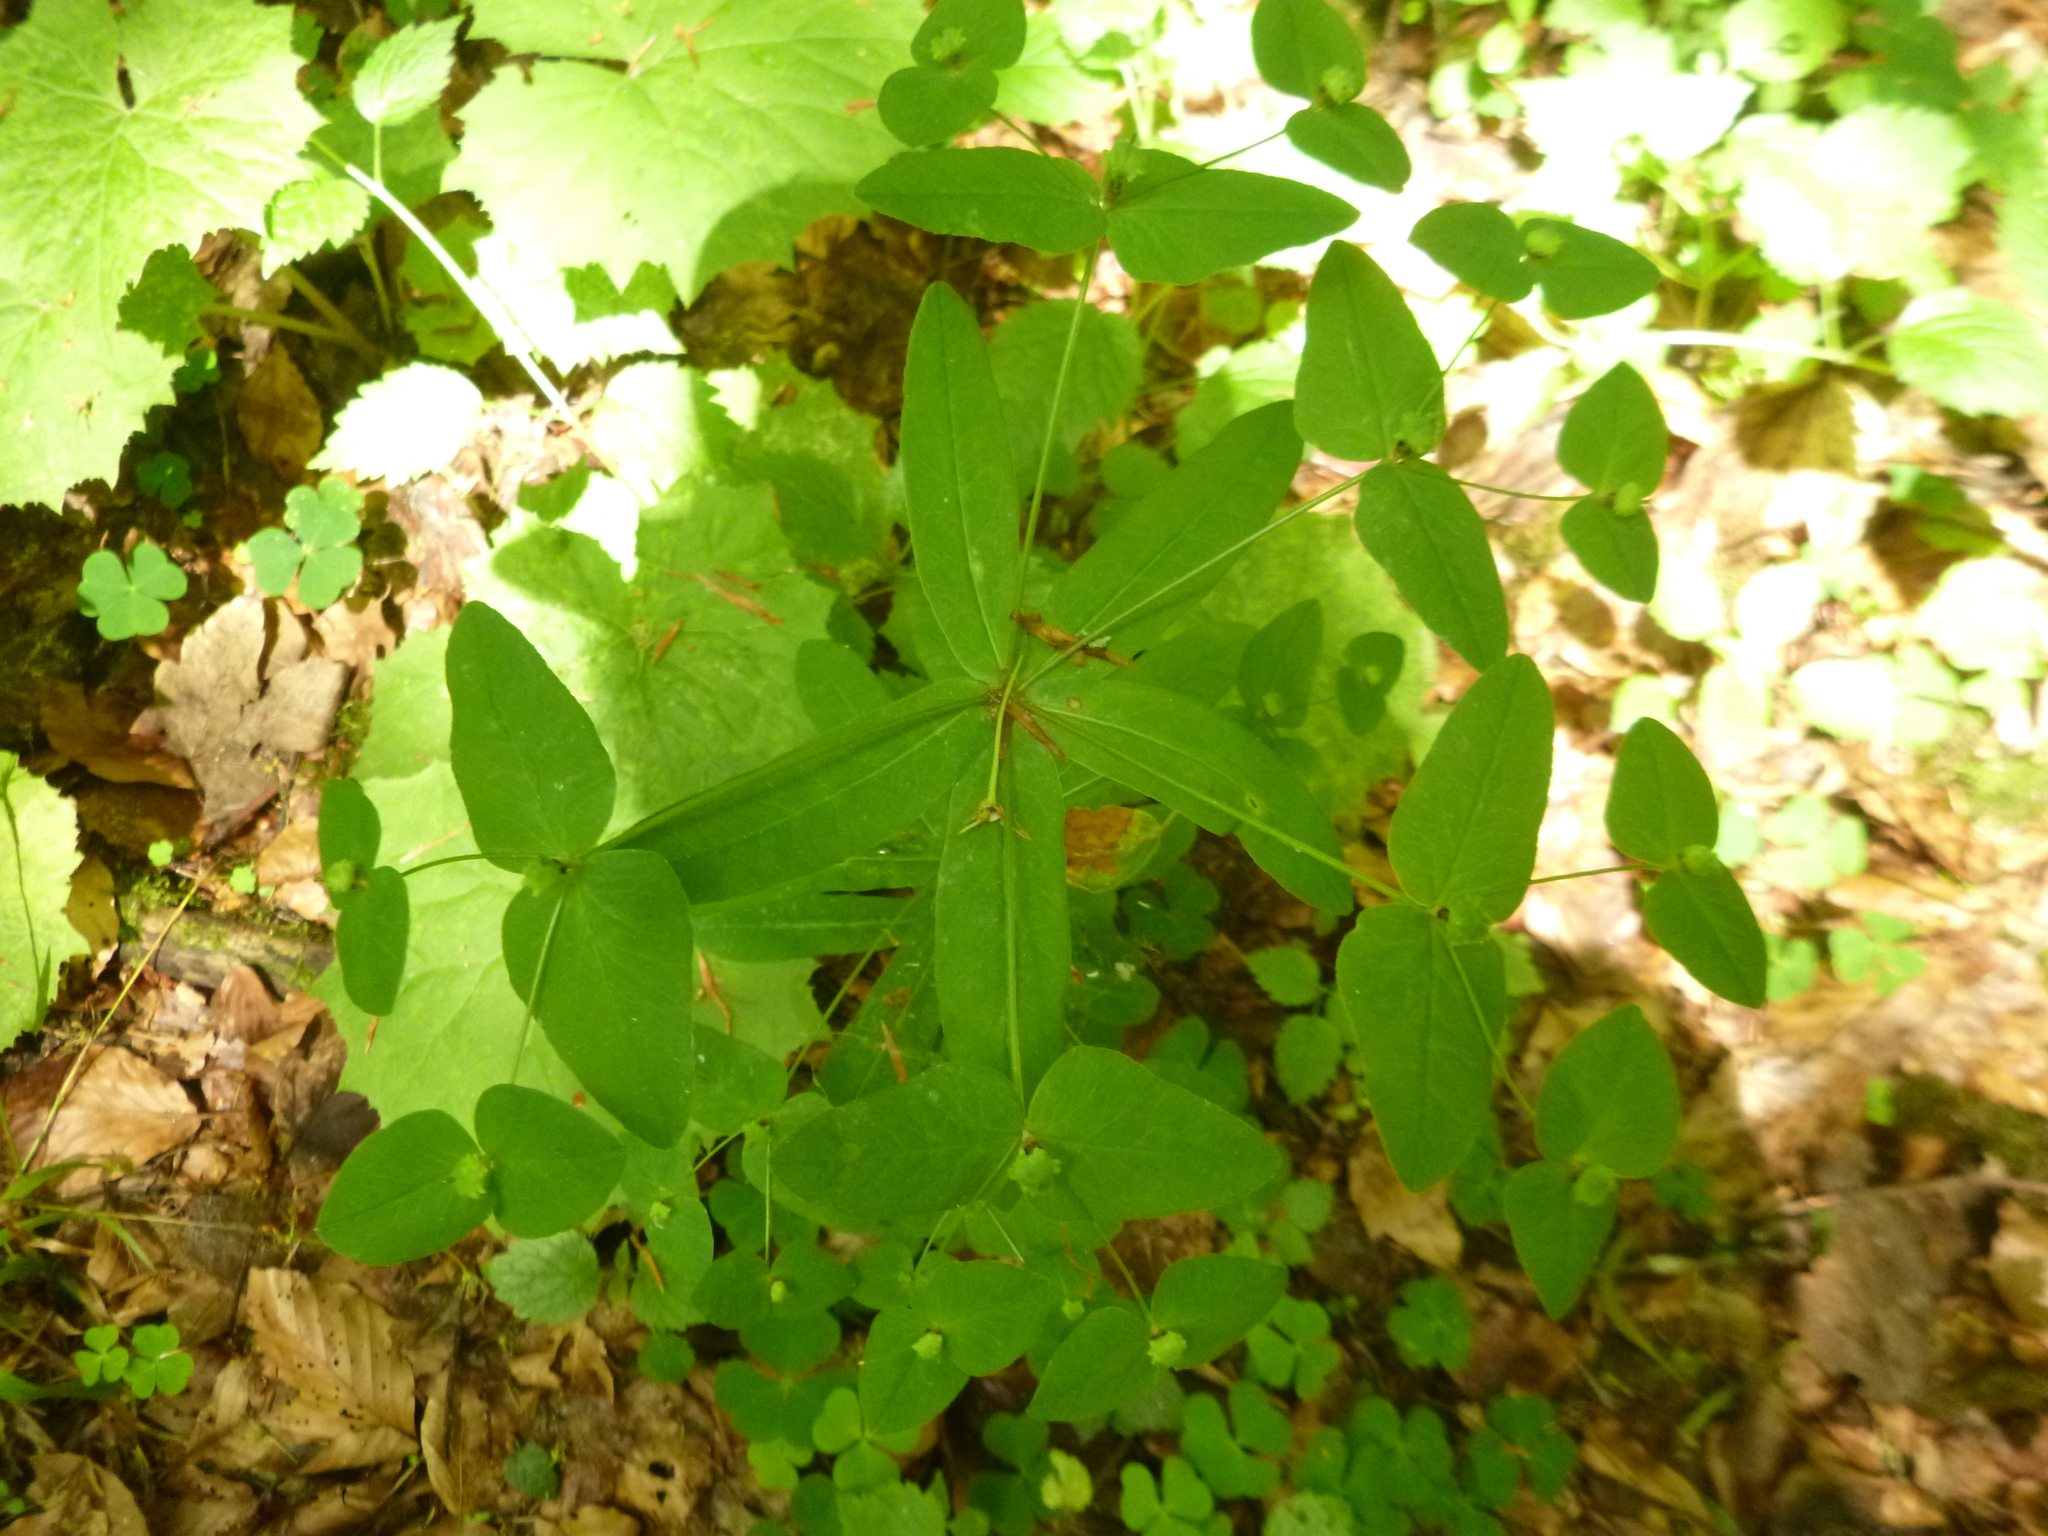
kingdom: Plantae
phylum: Tracheophyta
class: Magnoliopsida
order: Malpighiales
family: Euphorbiaceae
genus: Euphorbia
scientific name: Euphorbia dulcis
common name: Sweet spurge
